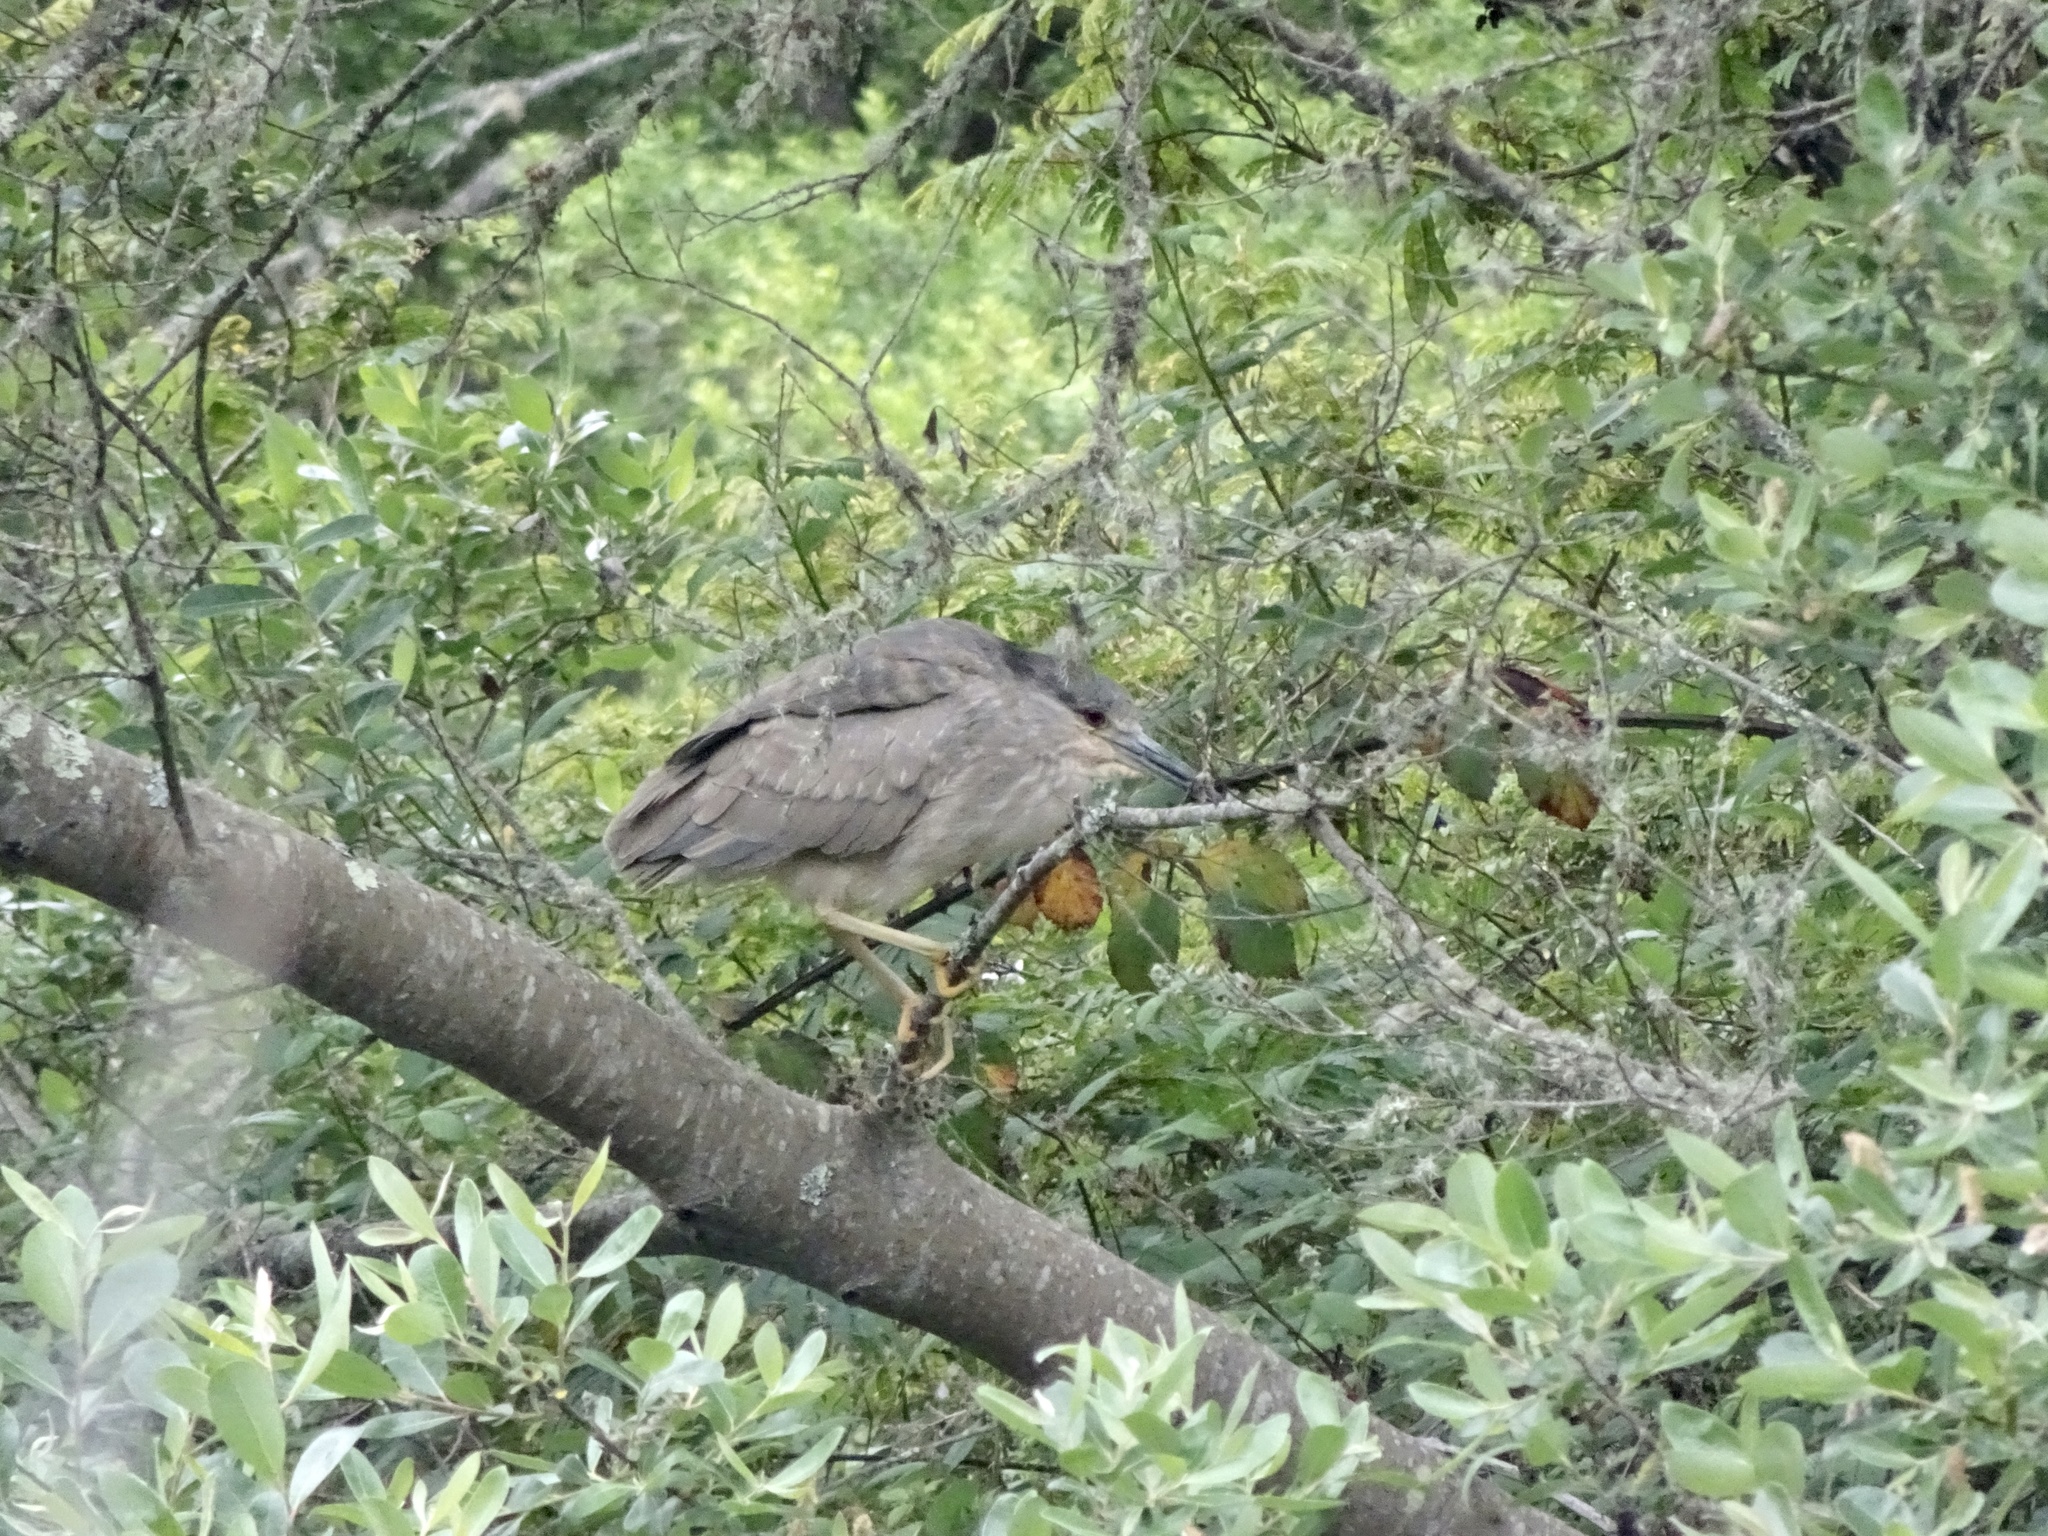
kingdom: Animalia
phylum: Chordata
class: Aves
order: Pelecaniformes
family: Ardeidae
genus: Nycticorax
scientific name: Nycticorax nycticorax
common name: Black-crowned night heron
